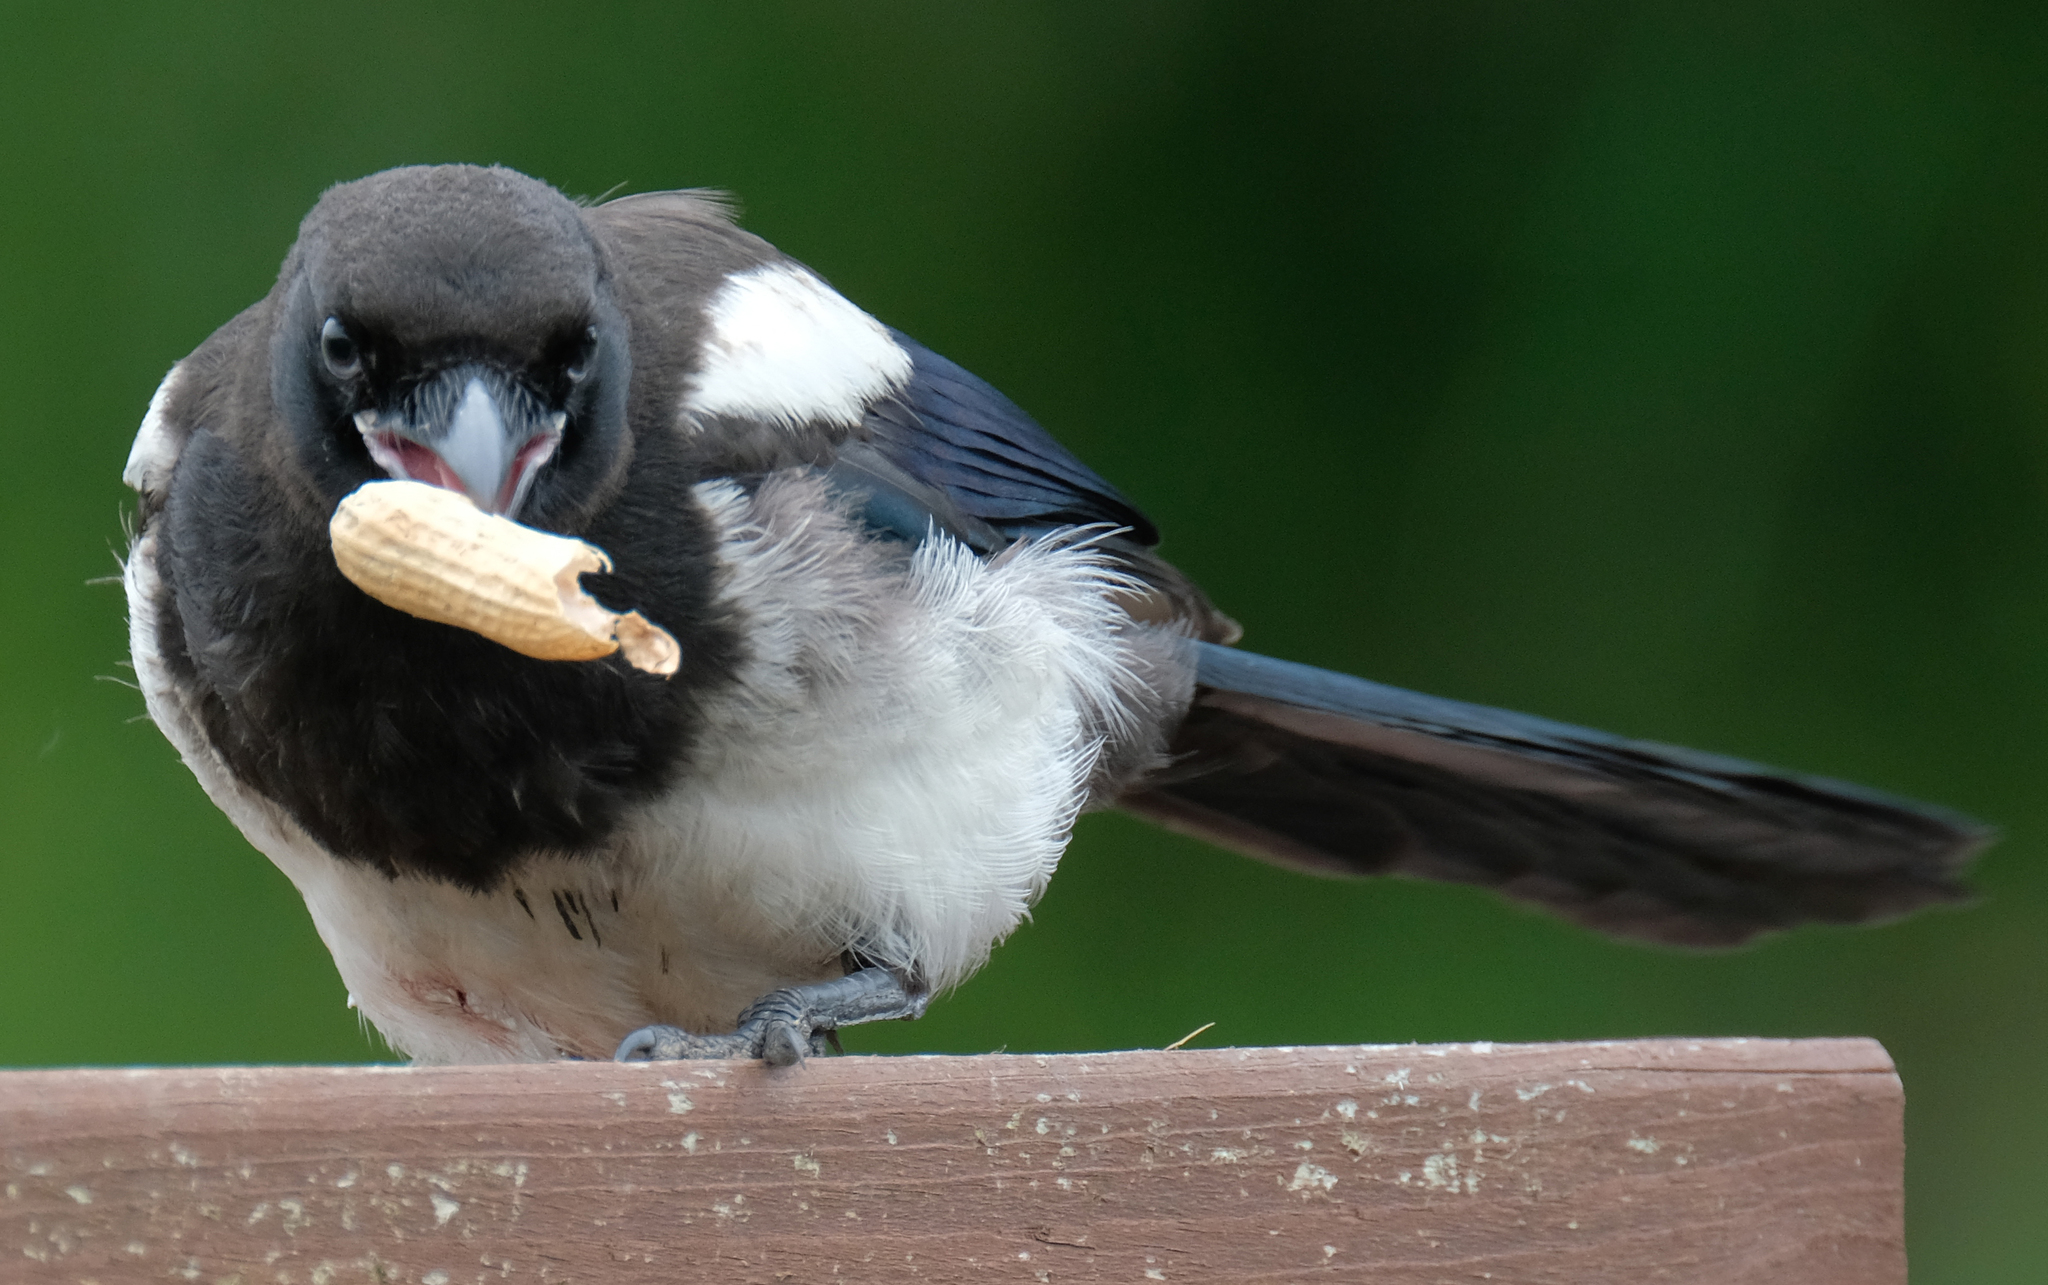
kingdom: Animalia
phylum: Chordata
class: Aves
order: Passeriformes
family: Corvidae
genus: Pica
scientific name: Pica hudsonia
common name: Black-billed magpie
